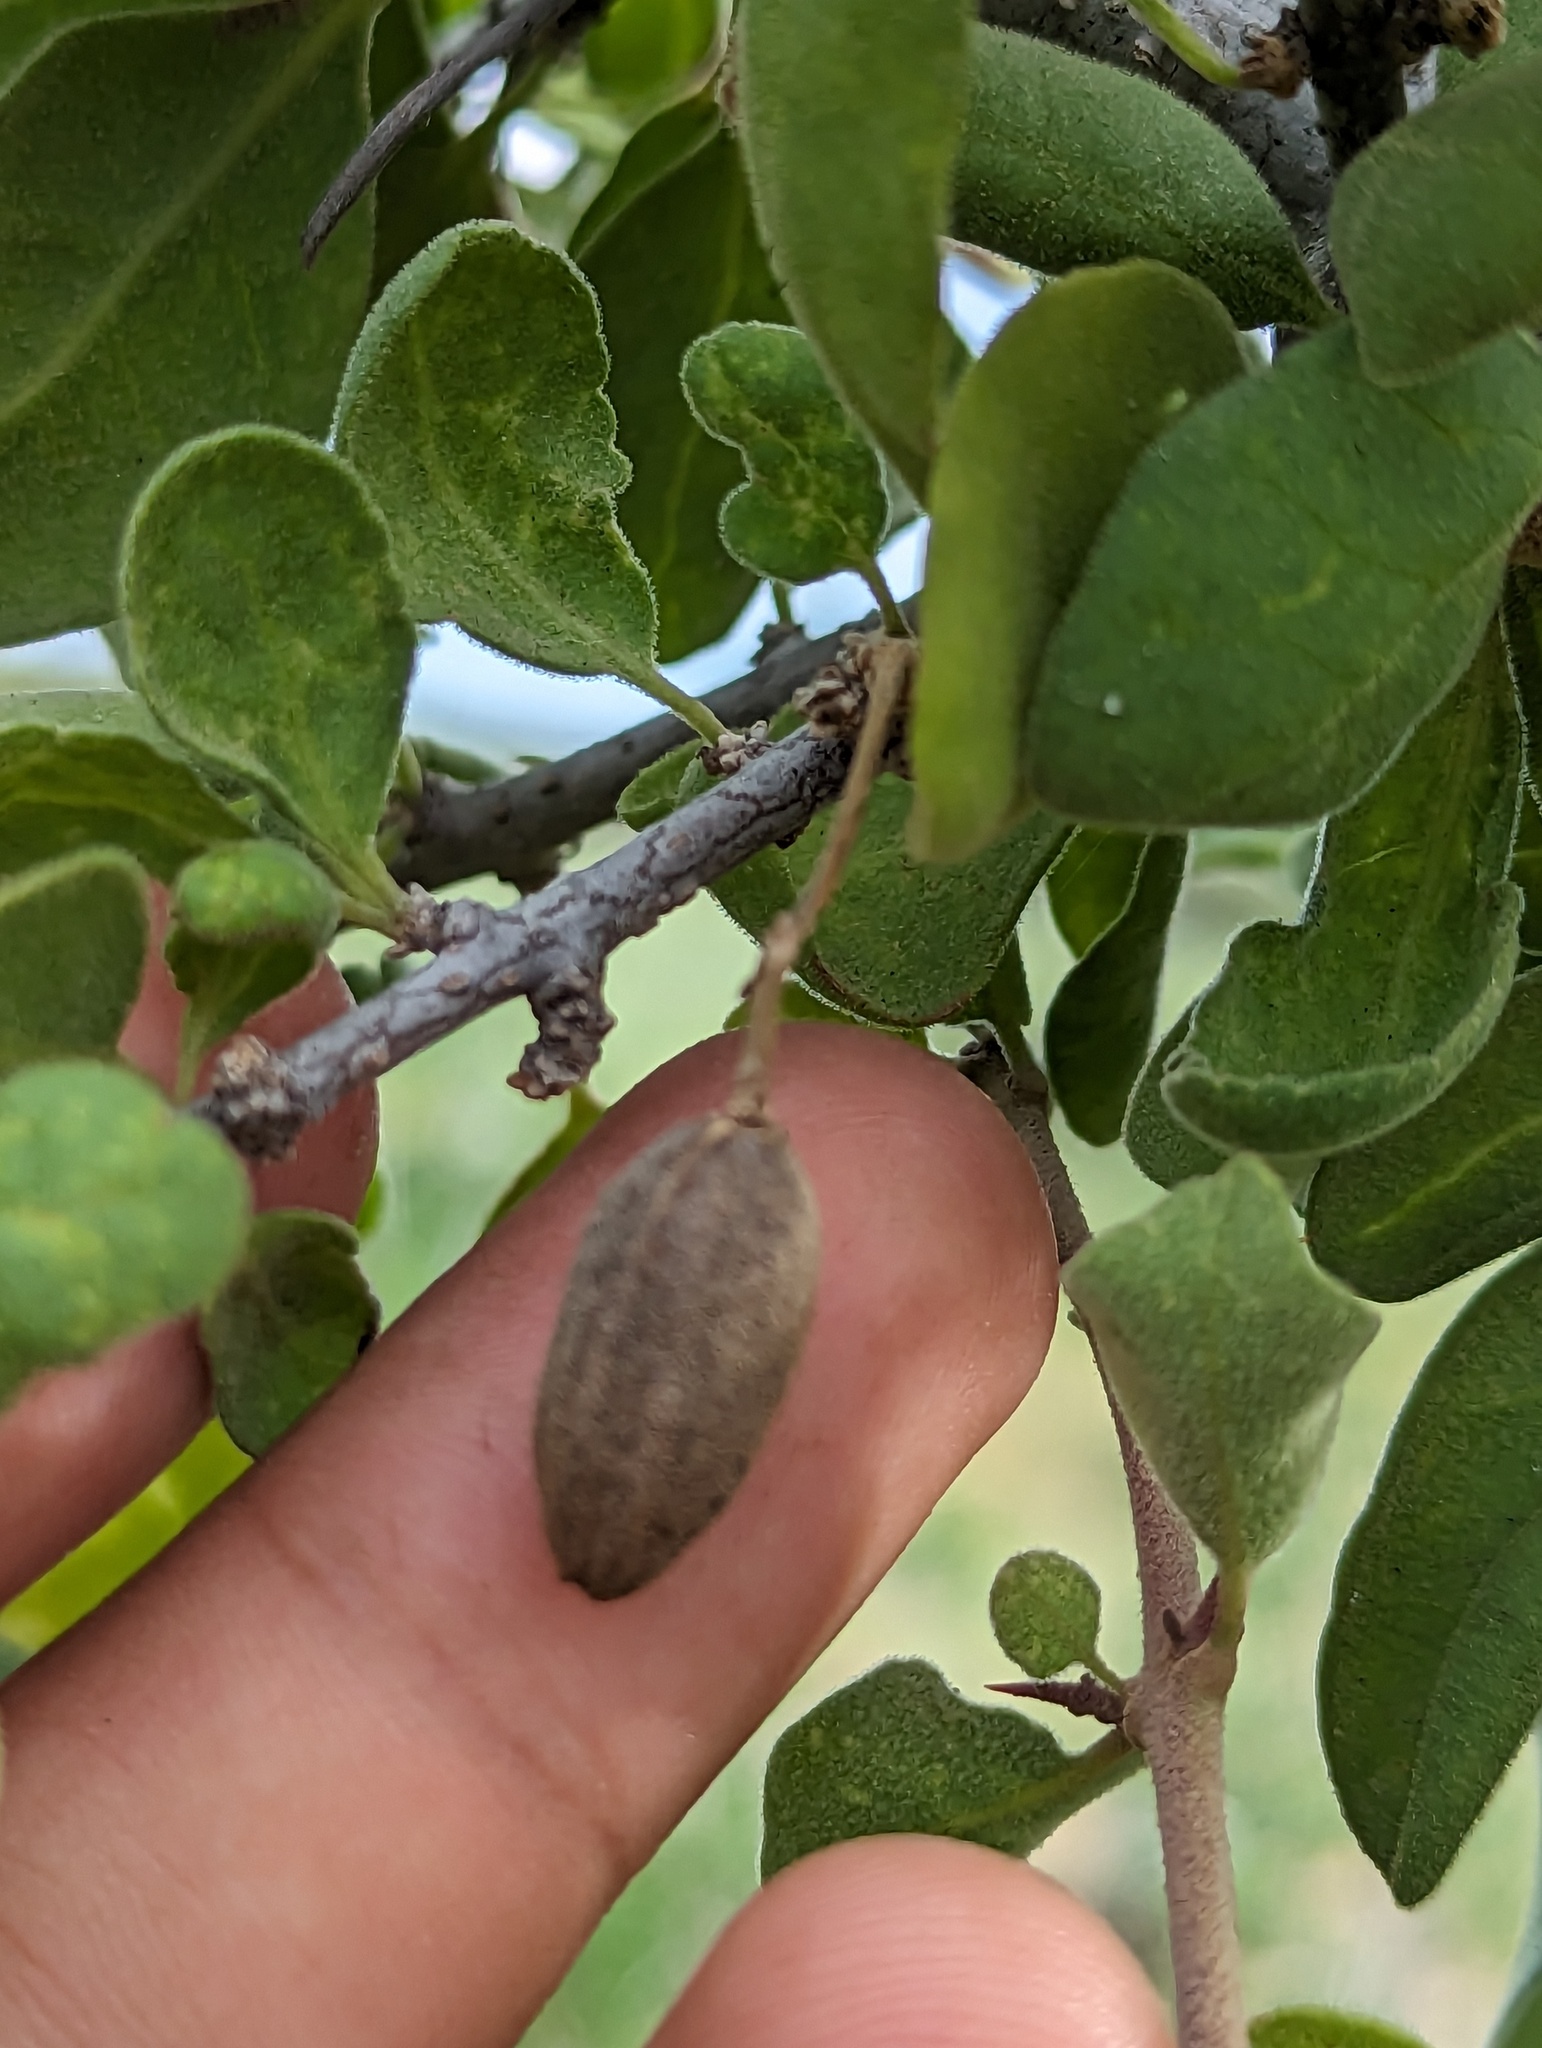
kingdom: Plantae
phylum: Tracheophyta
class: Magnoliopsida
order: Caryophyllales
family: Nyctaginaceae
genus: Pisonia
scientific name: Pisonia calafia
